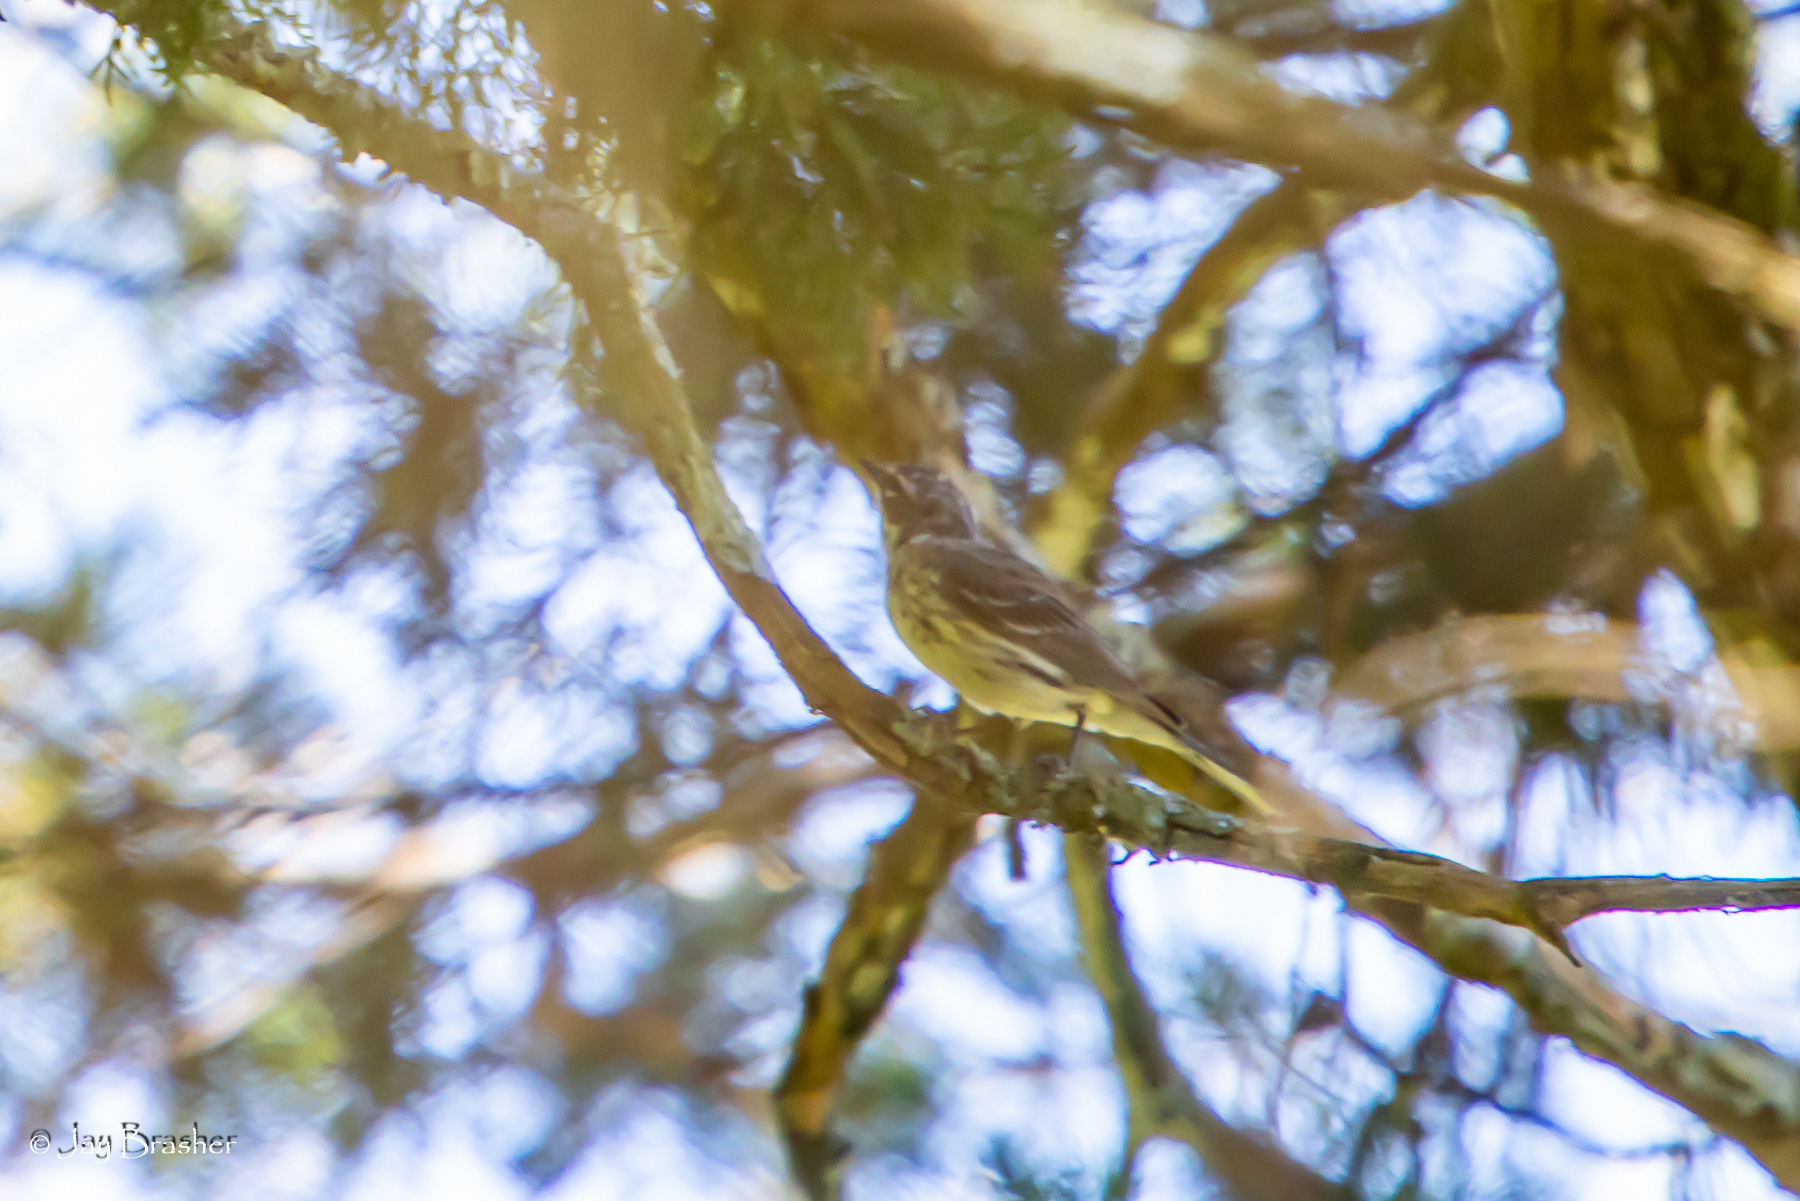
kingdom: Animalia
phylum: Chordata
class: Aves
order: Passeriformes
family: Parulidae
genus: Setophaga
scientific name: Setophaga coronata
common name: Myrtle warbler
